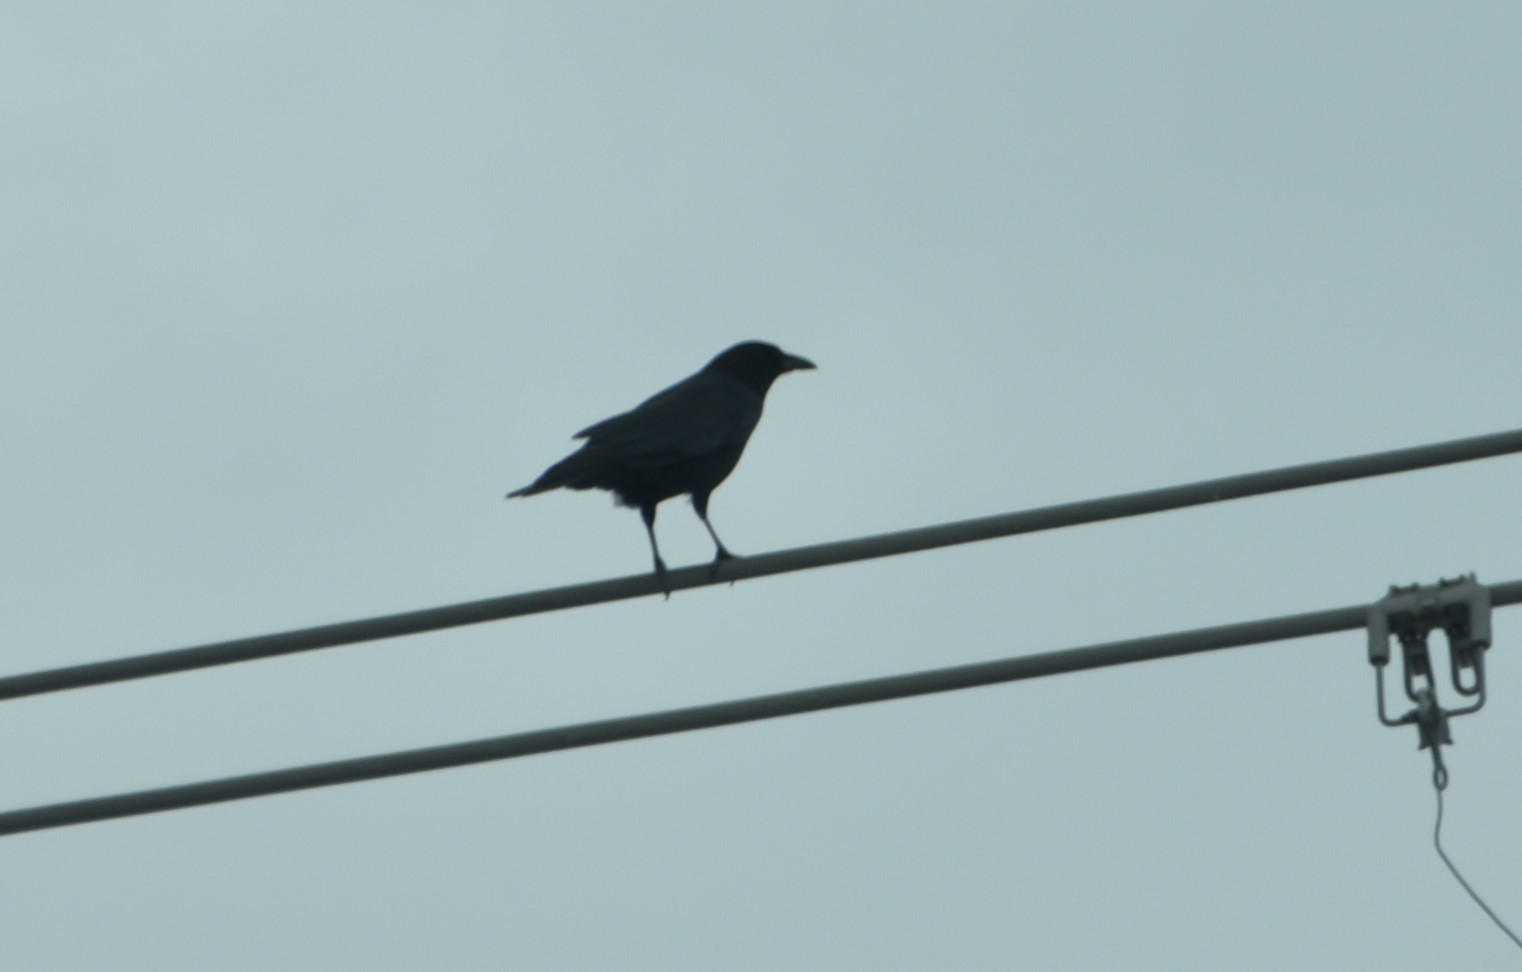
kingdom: Animalia
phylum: Chordata
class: Aves
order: Passeriformes
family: Corvidae
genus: Corvus
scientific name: Corvus brachyrhynchos
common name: American crow
